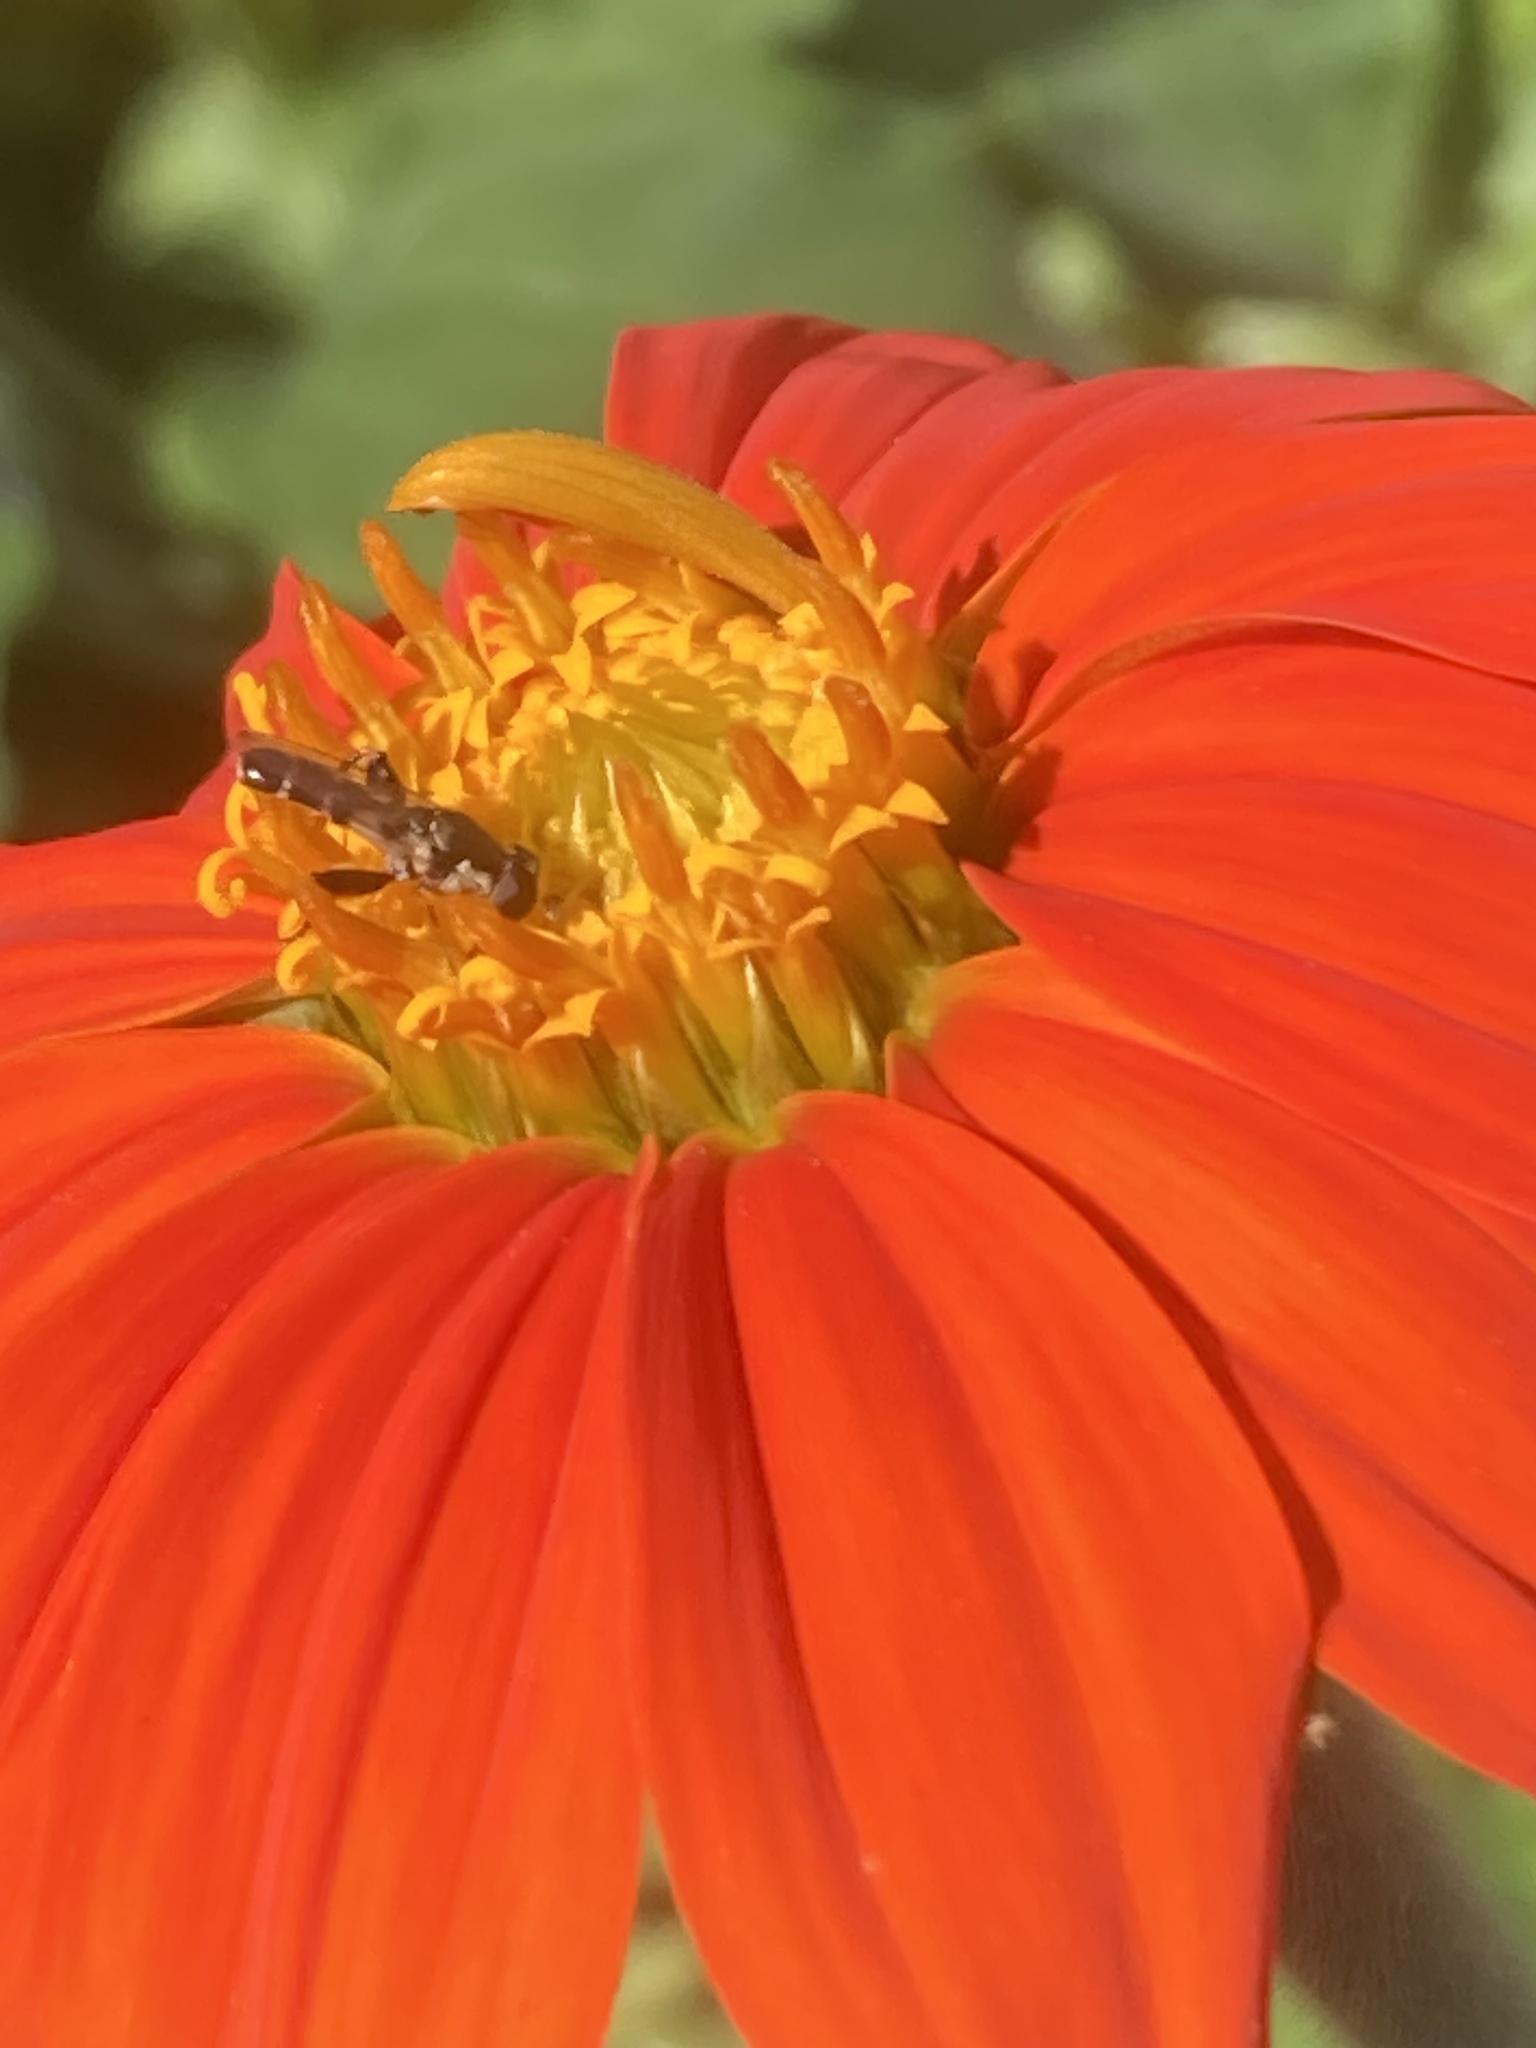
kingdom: Animalia
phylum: Arthropoda
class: Insecta
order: Diptera
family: Syrphidae
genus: Syritta
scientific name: Syritta pipiens
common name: Hover fly
